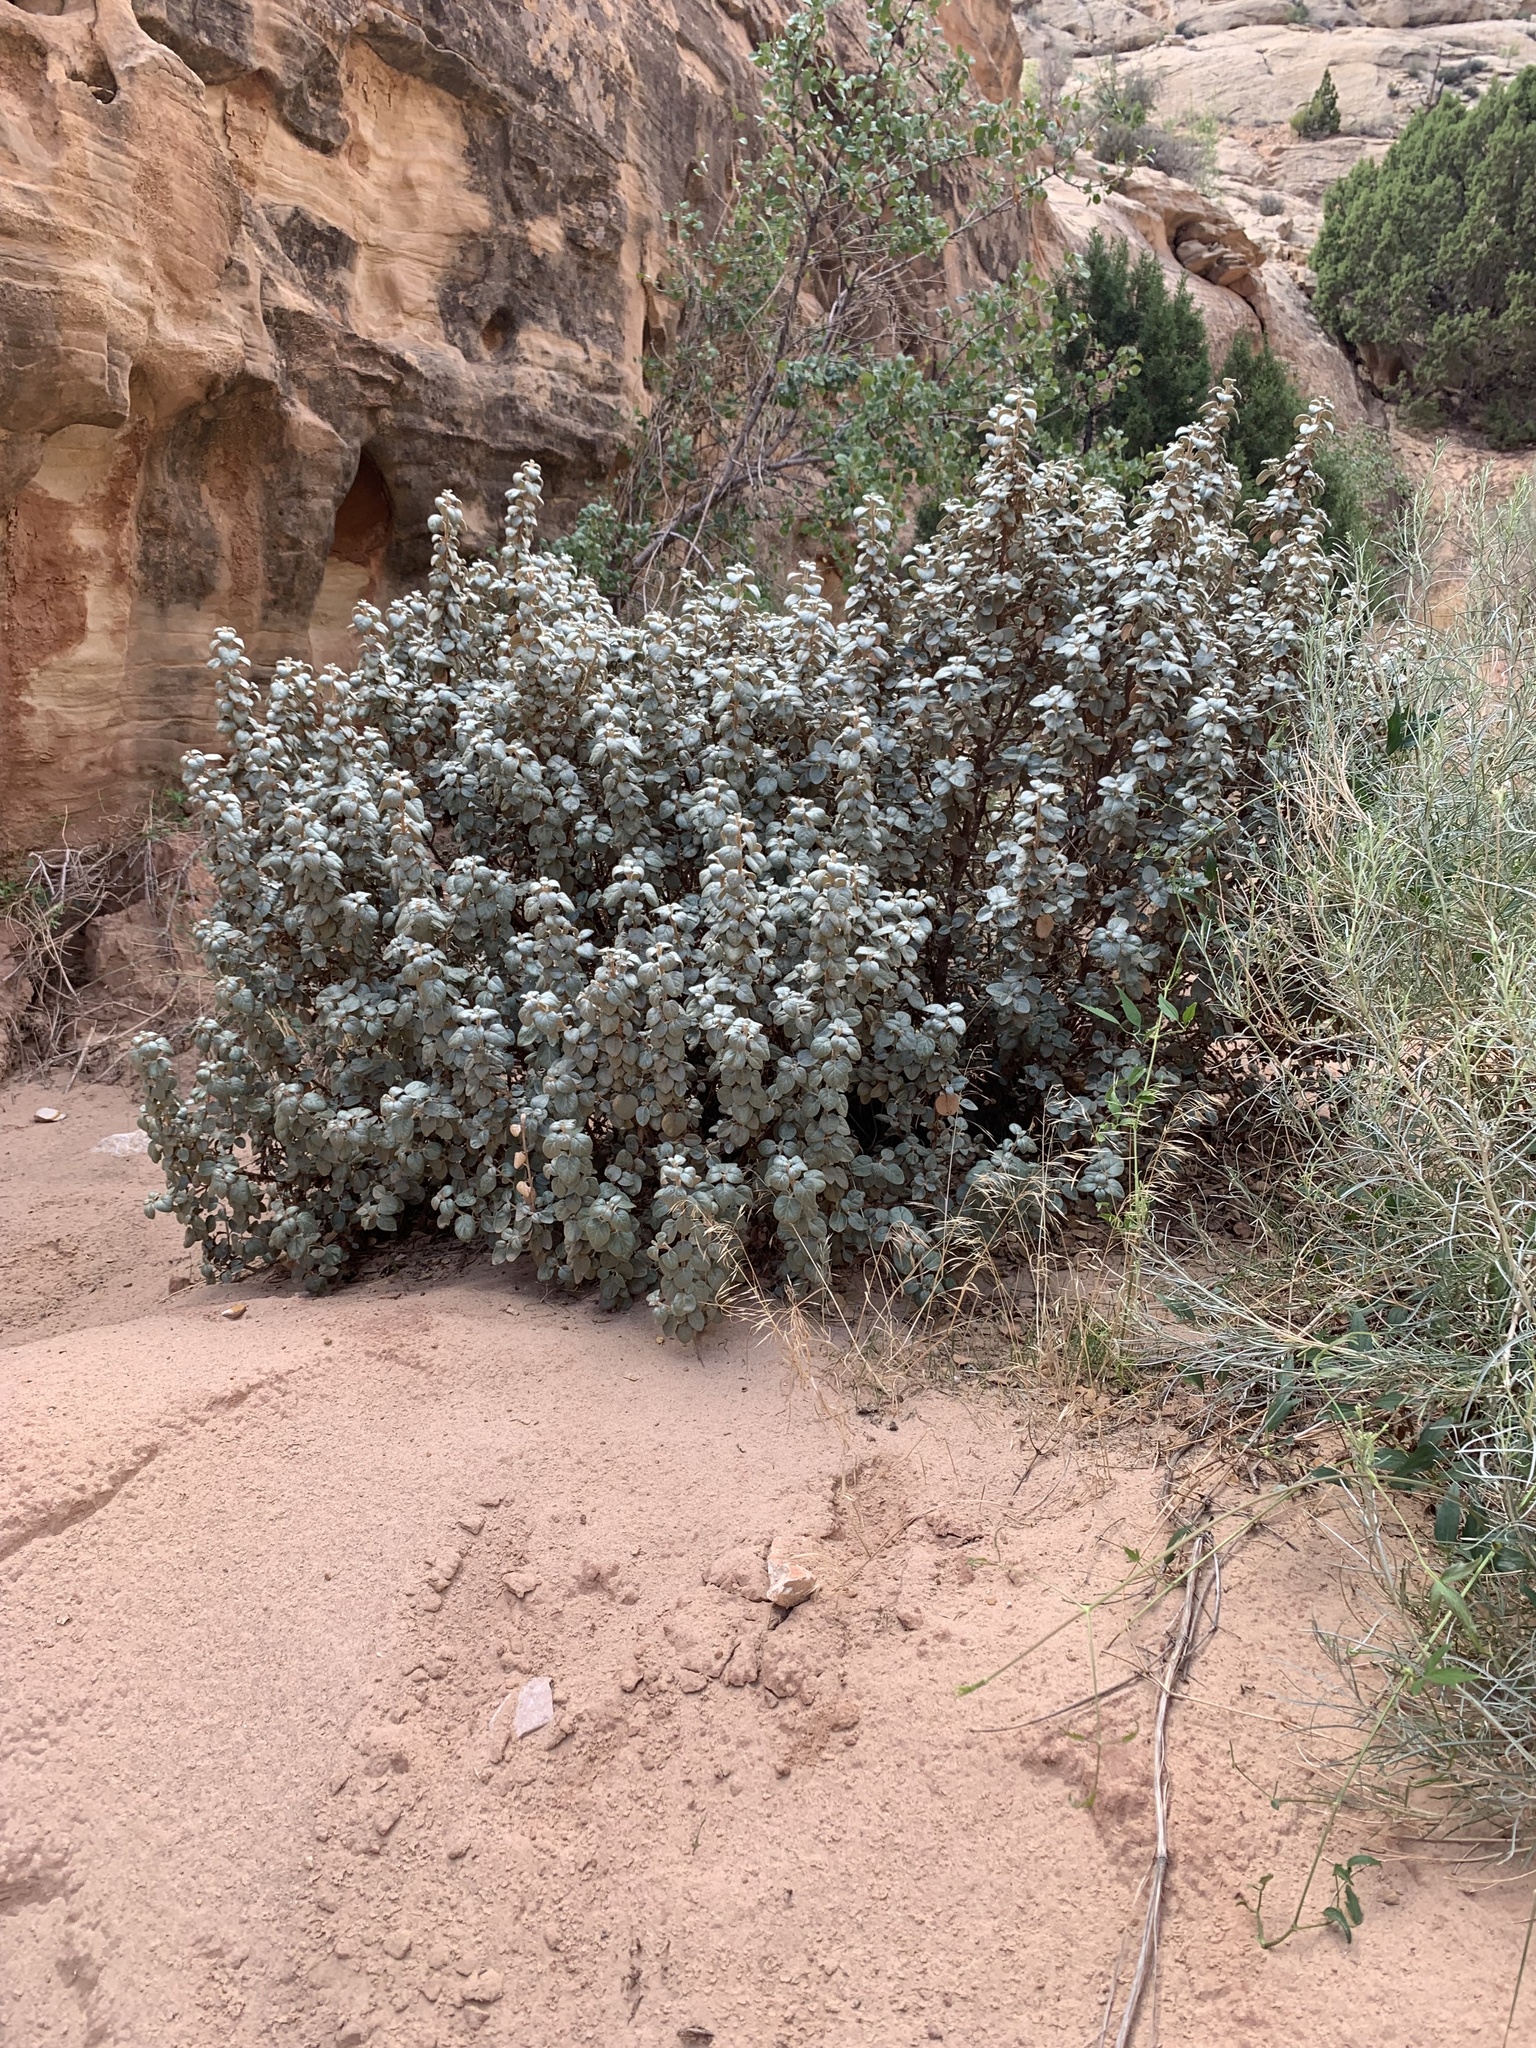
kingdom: Plantae
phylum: Tracheophyta
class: Magnoliopsida
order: Rosales
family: Elaeagnaceae
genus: Shepherdia
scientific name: Shepherdia rotundifolia
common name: Silverscale
